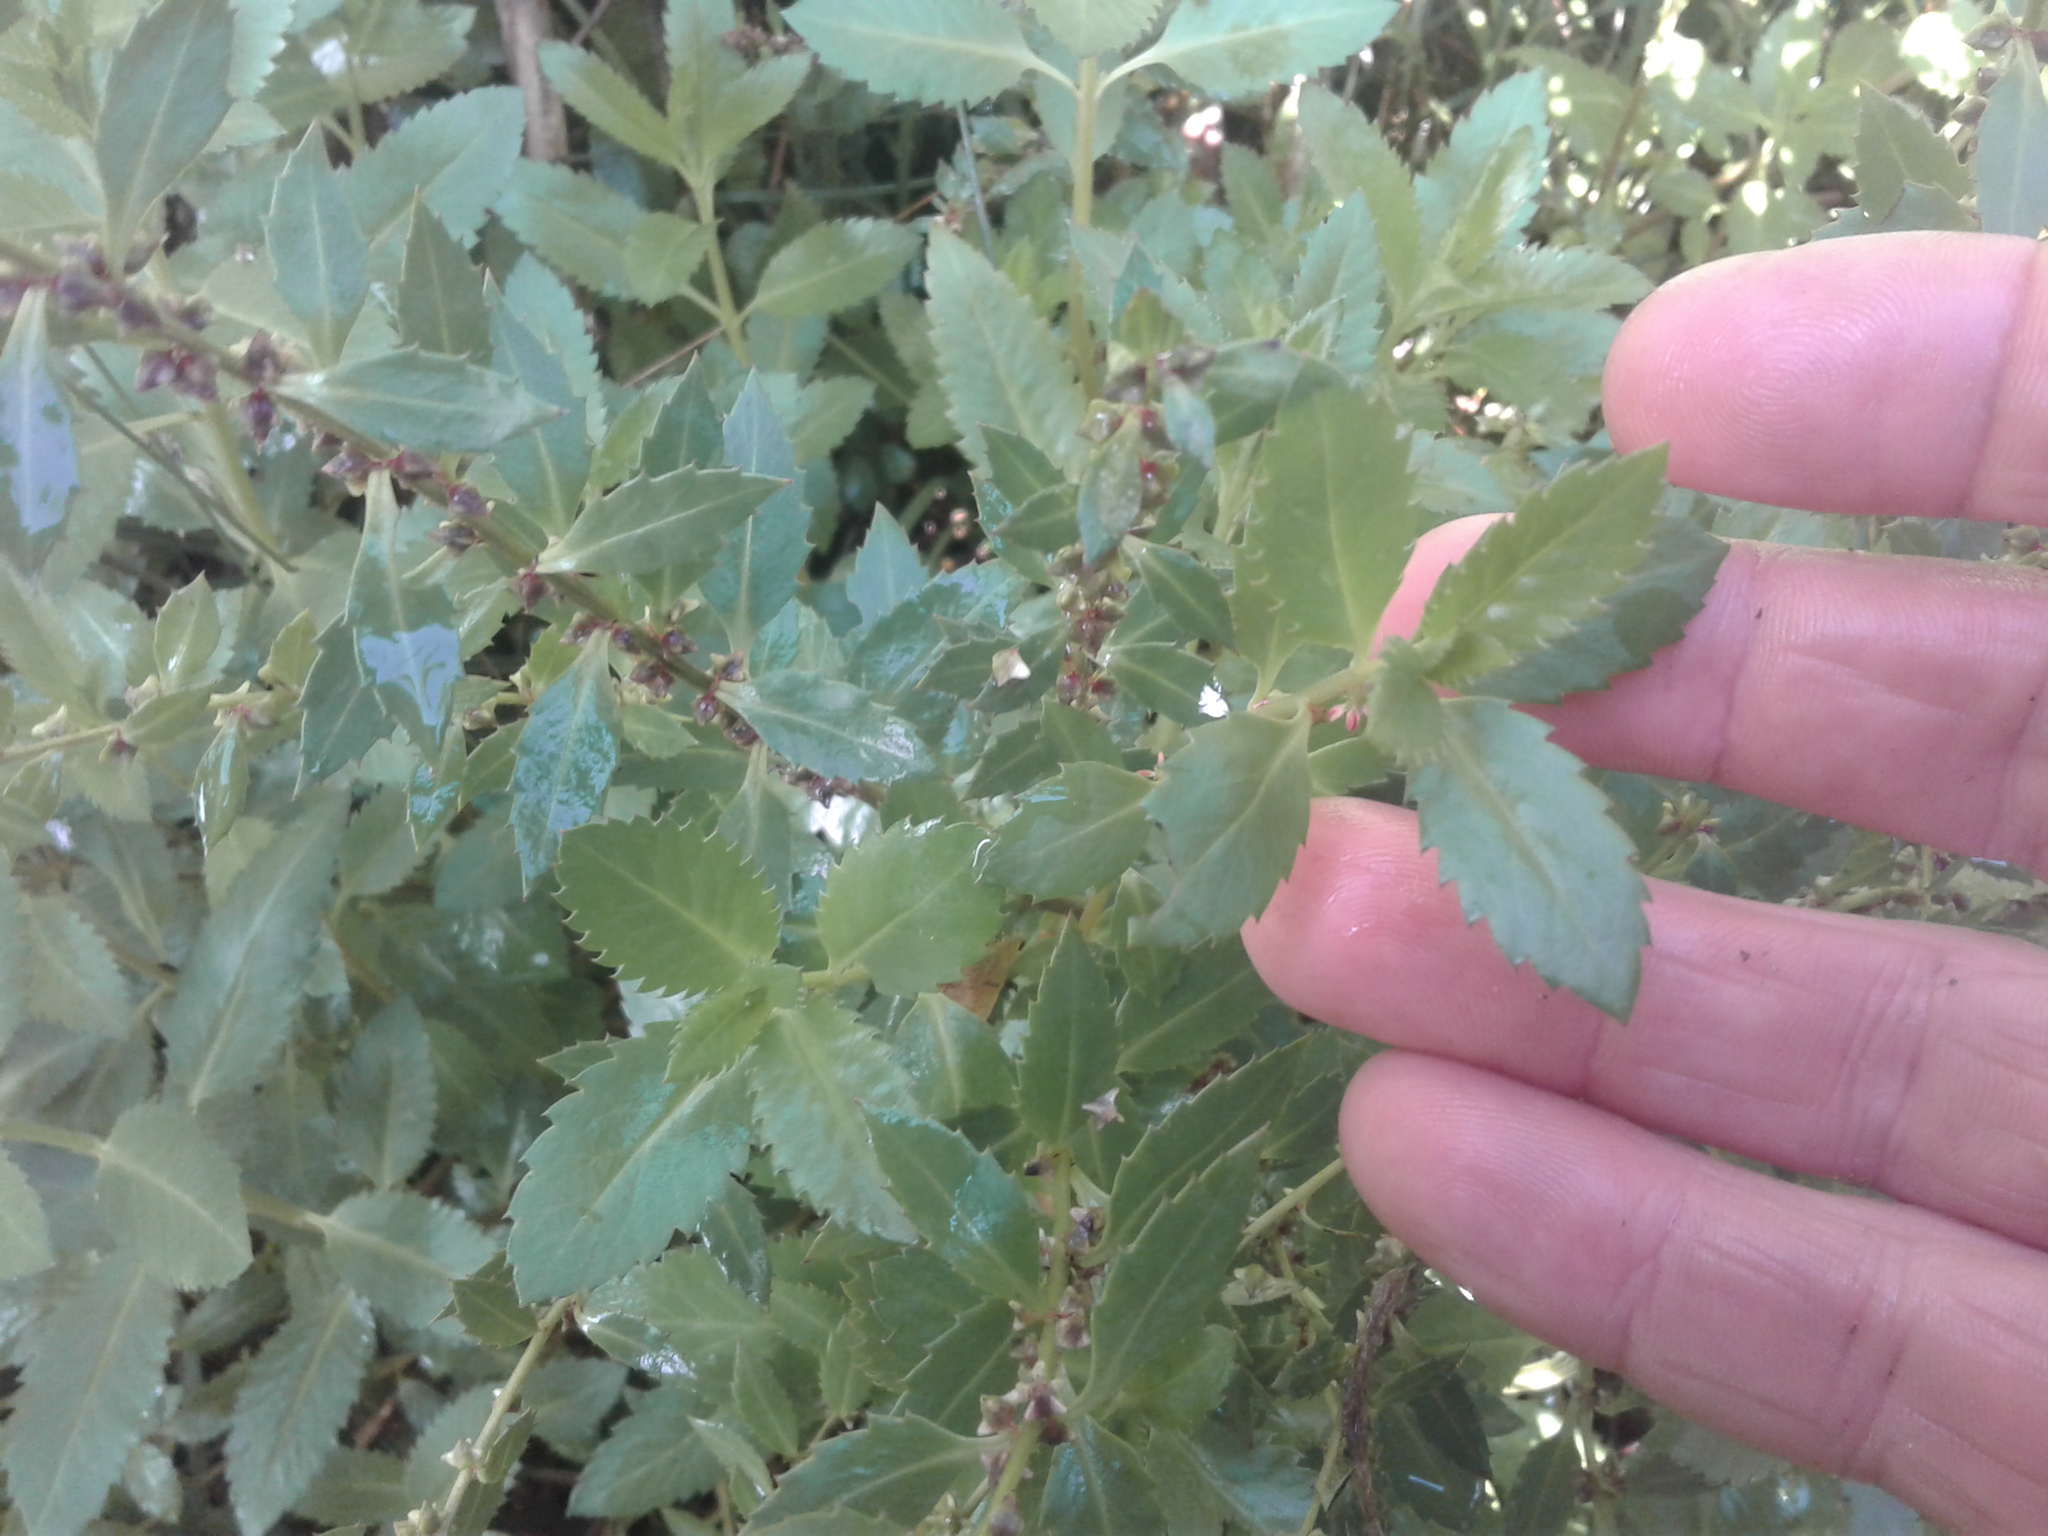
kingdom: Plantae
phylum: Tracheophyta
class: Magnoliopsida
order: Saxifragales
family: Haloragaceae
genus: Haloragis
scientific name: Haloragis erecta
